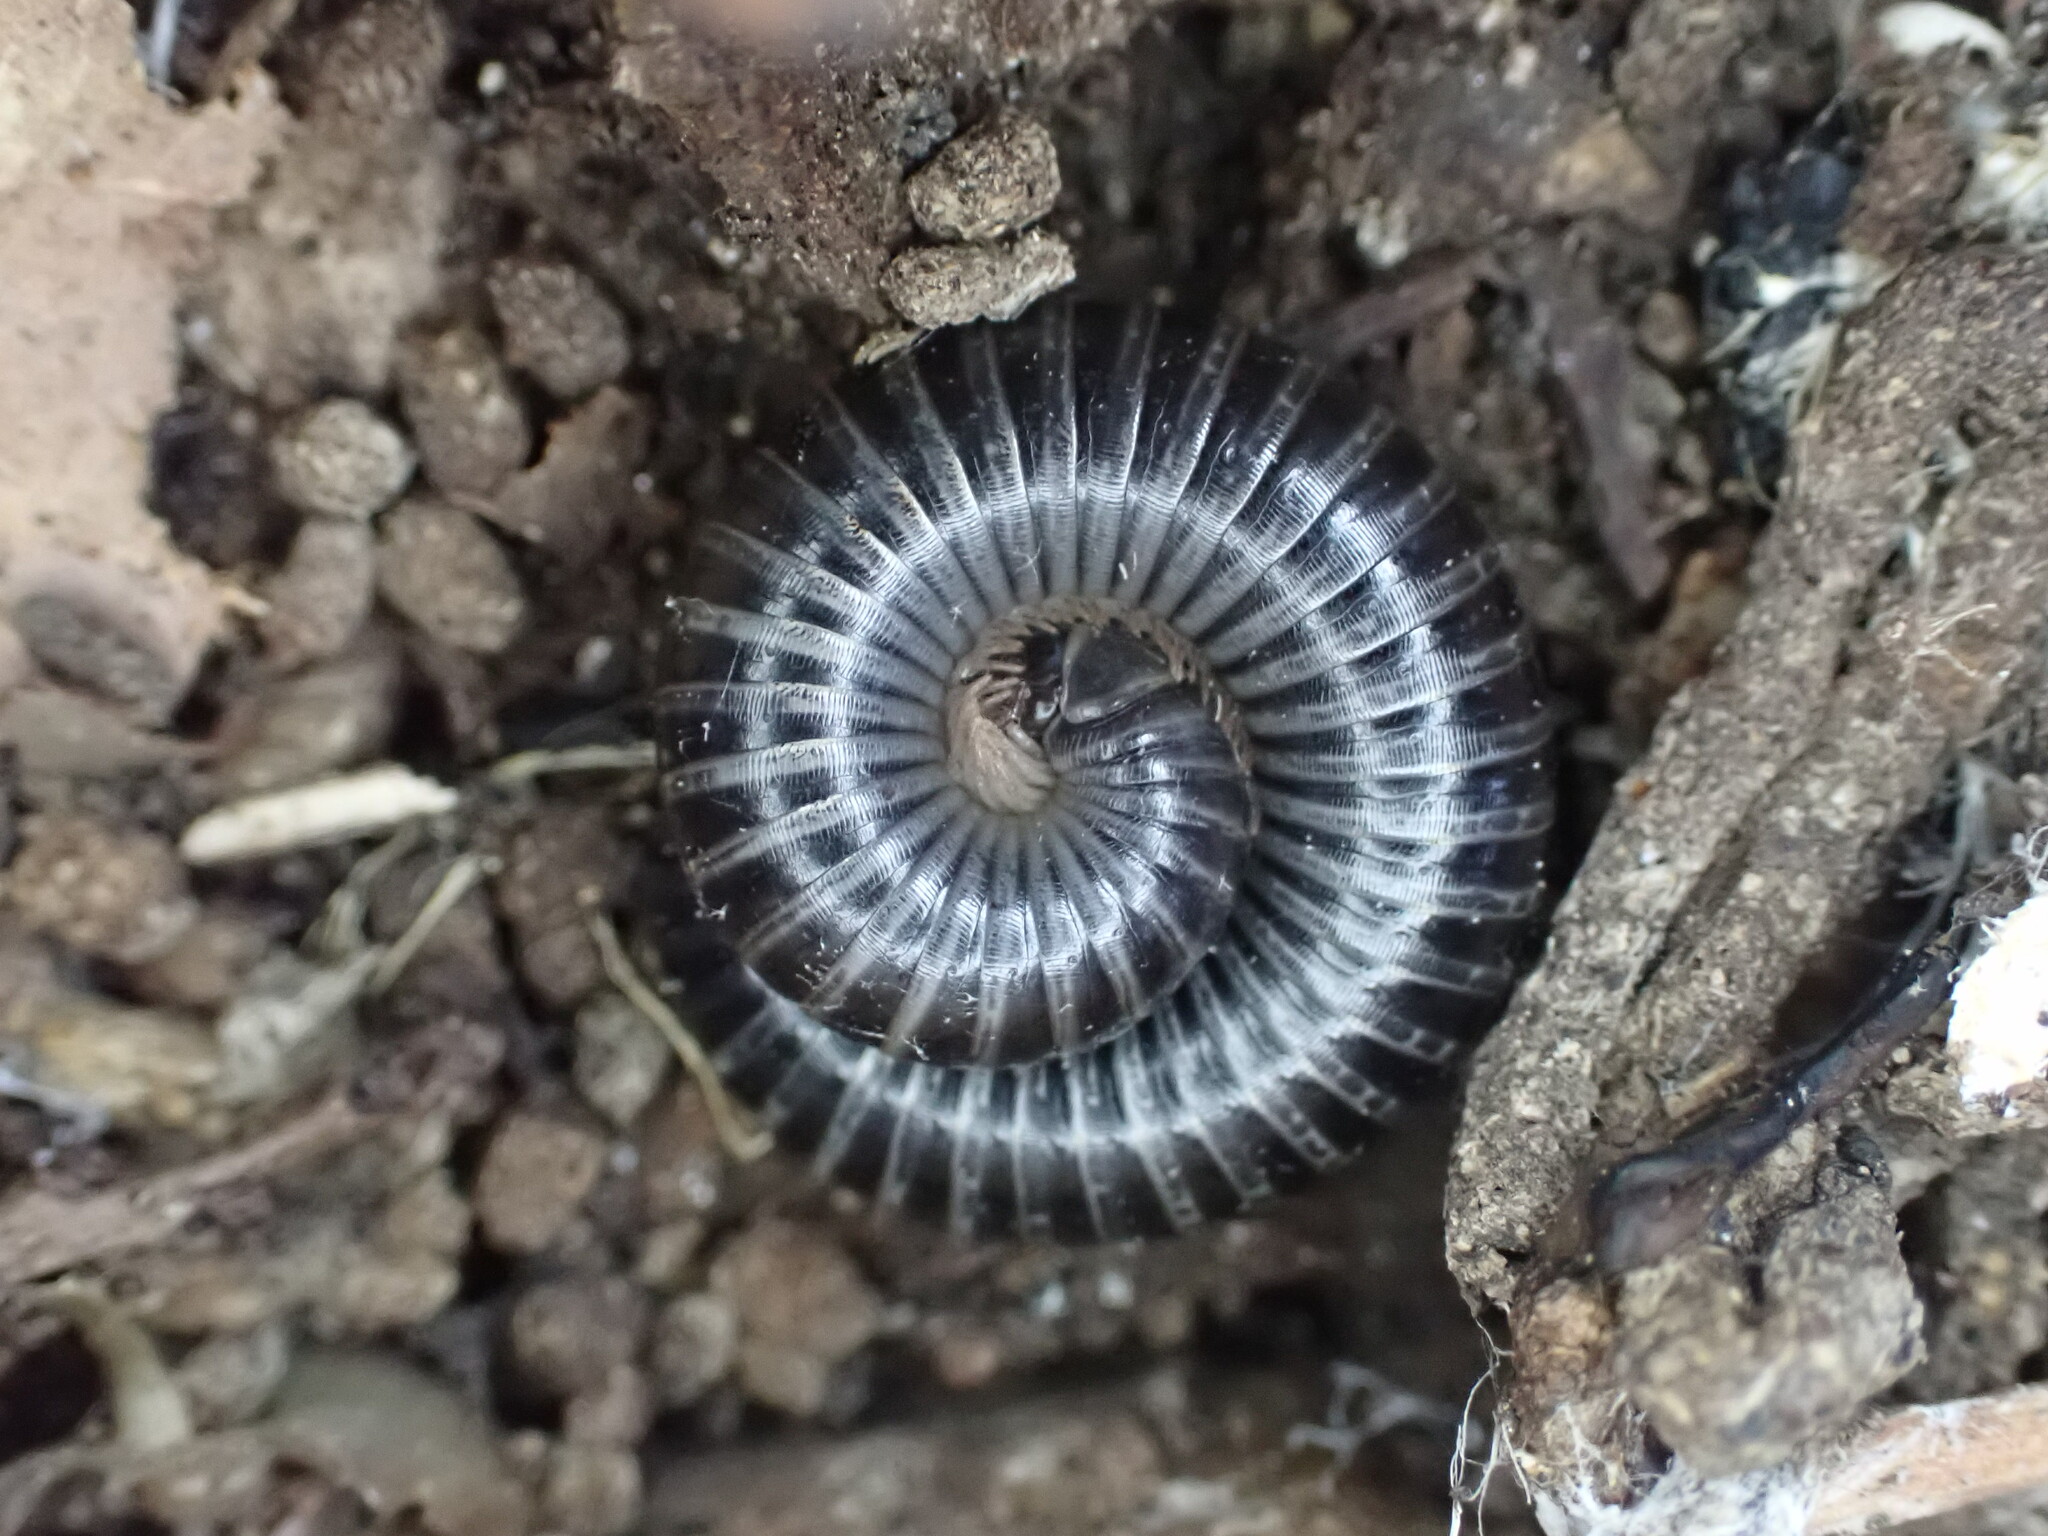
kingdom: Animalia
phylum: Arthropoda
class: Diplopoda
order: Julida
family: Julidae
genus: Ommatoiulus
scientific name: Ommatoiulus sabulosus
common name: Striped millipede
